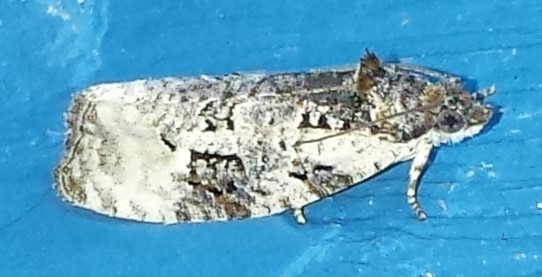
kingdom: Animalia
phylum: Arthropoda
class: Insecta
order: Lepidoptera
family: Tortricidae
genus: Apotomis
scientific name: Apotomis albeolana
